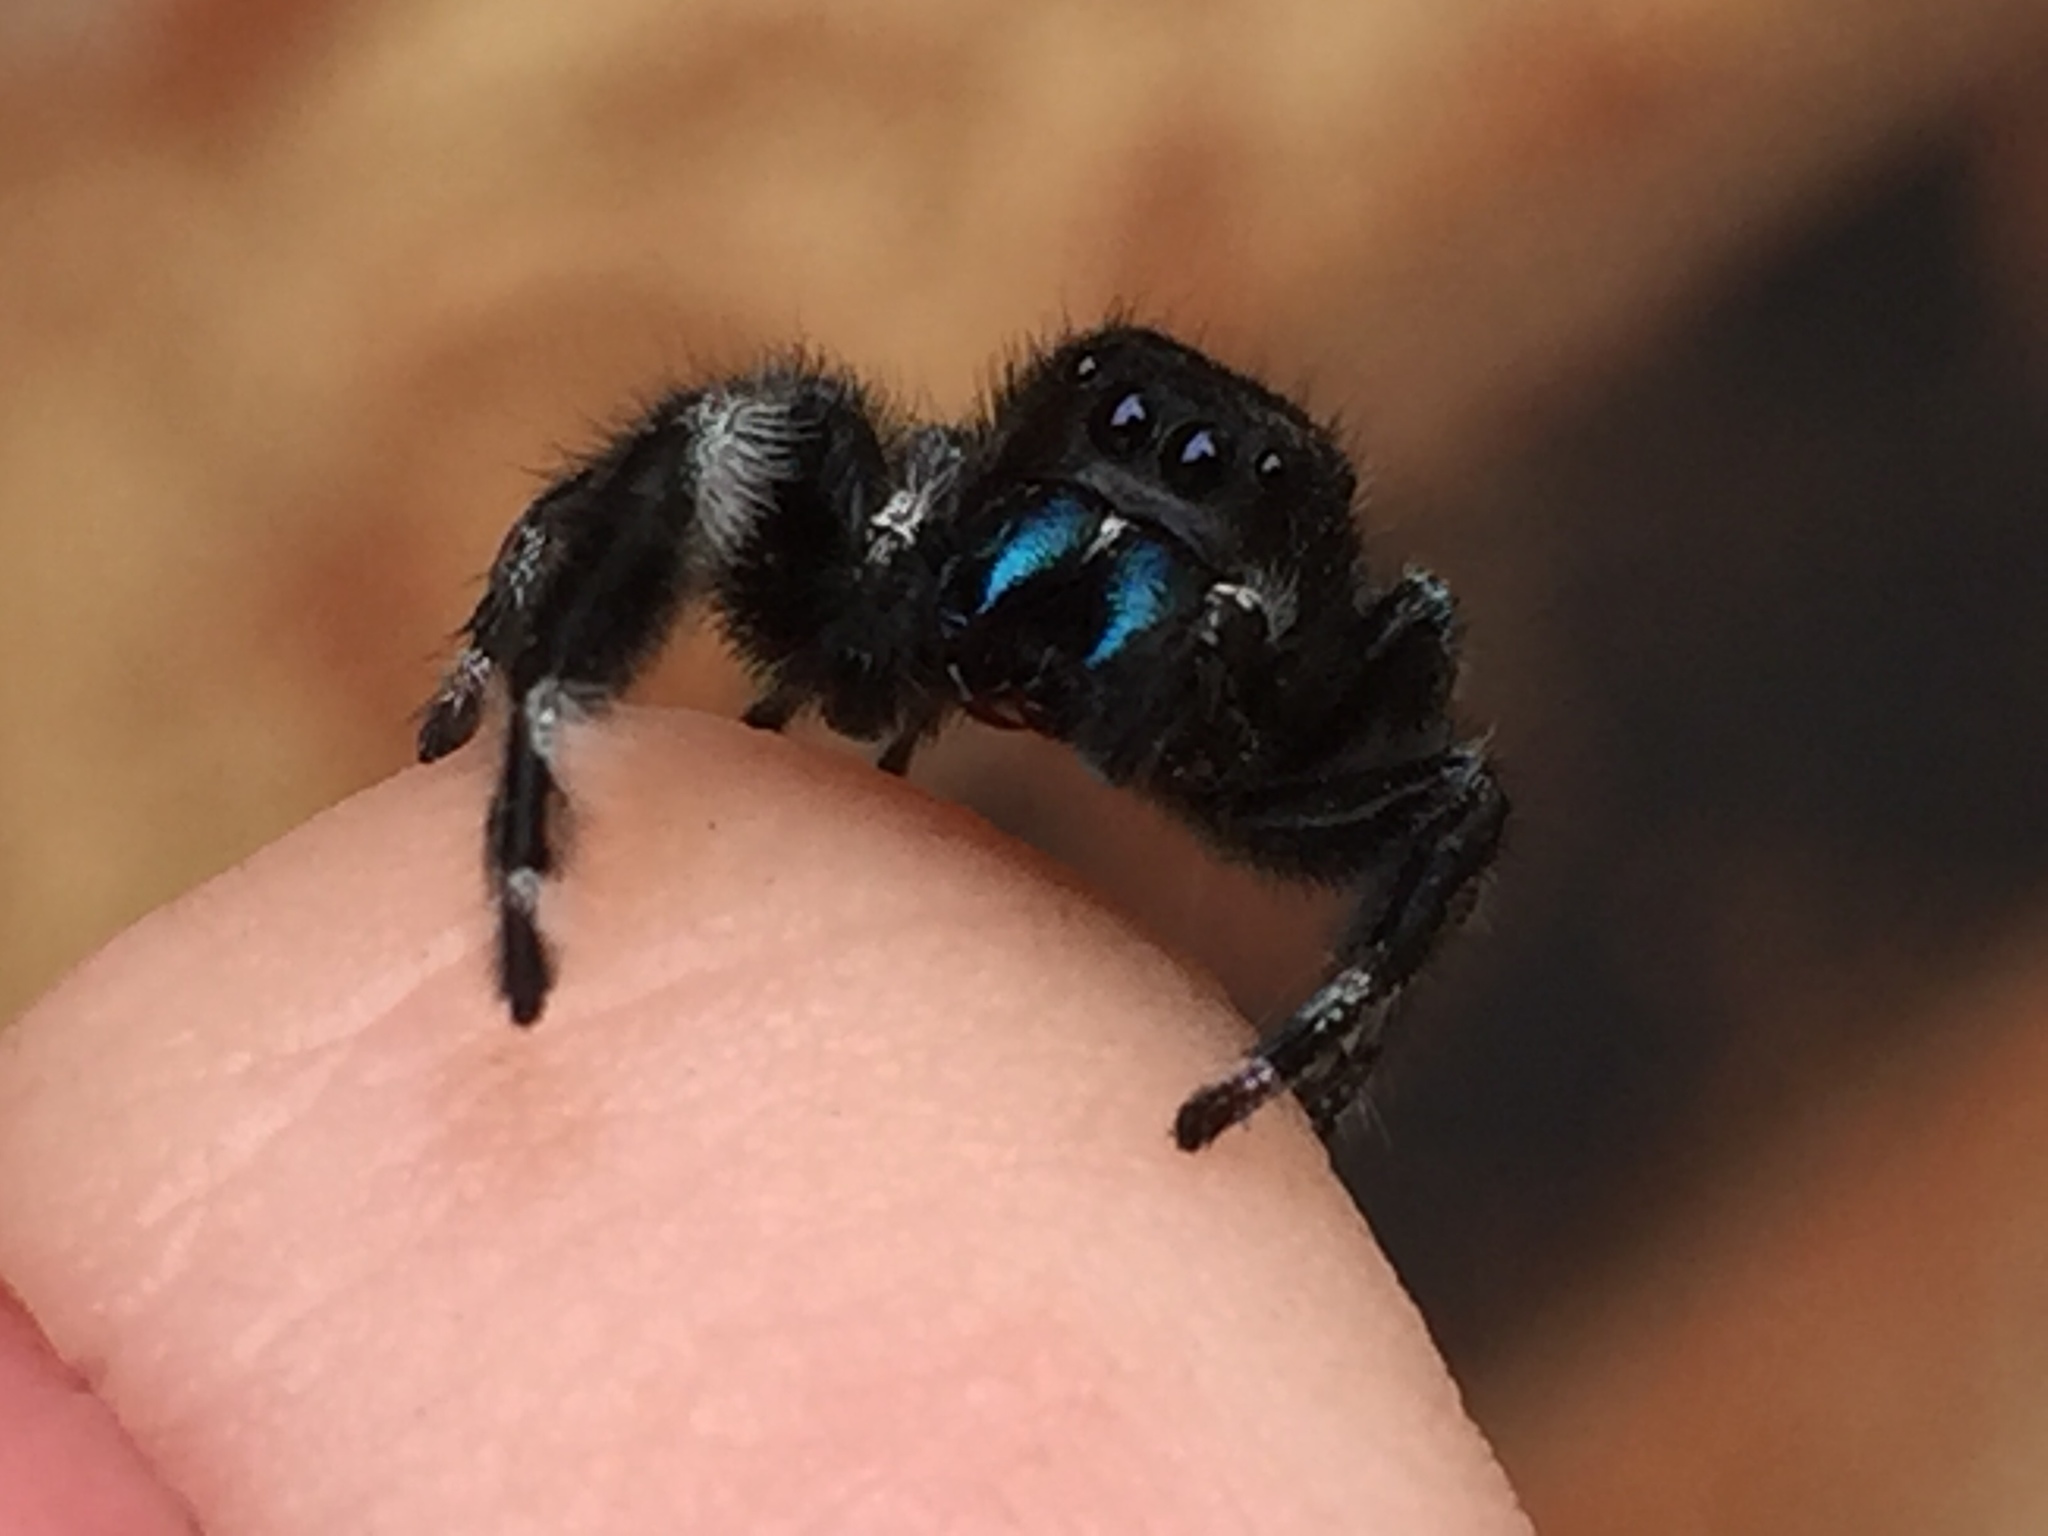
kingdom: Animalia
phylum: Arthropoda
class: Arachnida
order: Araneae
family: Salticidae
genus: Phidippus
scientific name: Phidippus audax
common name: Bold jumper
